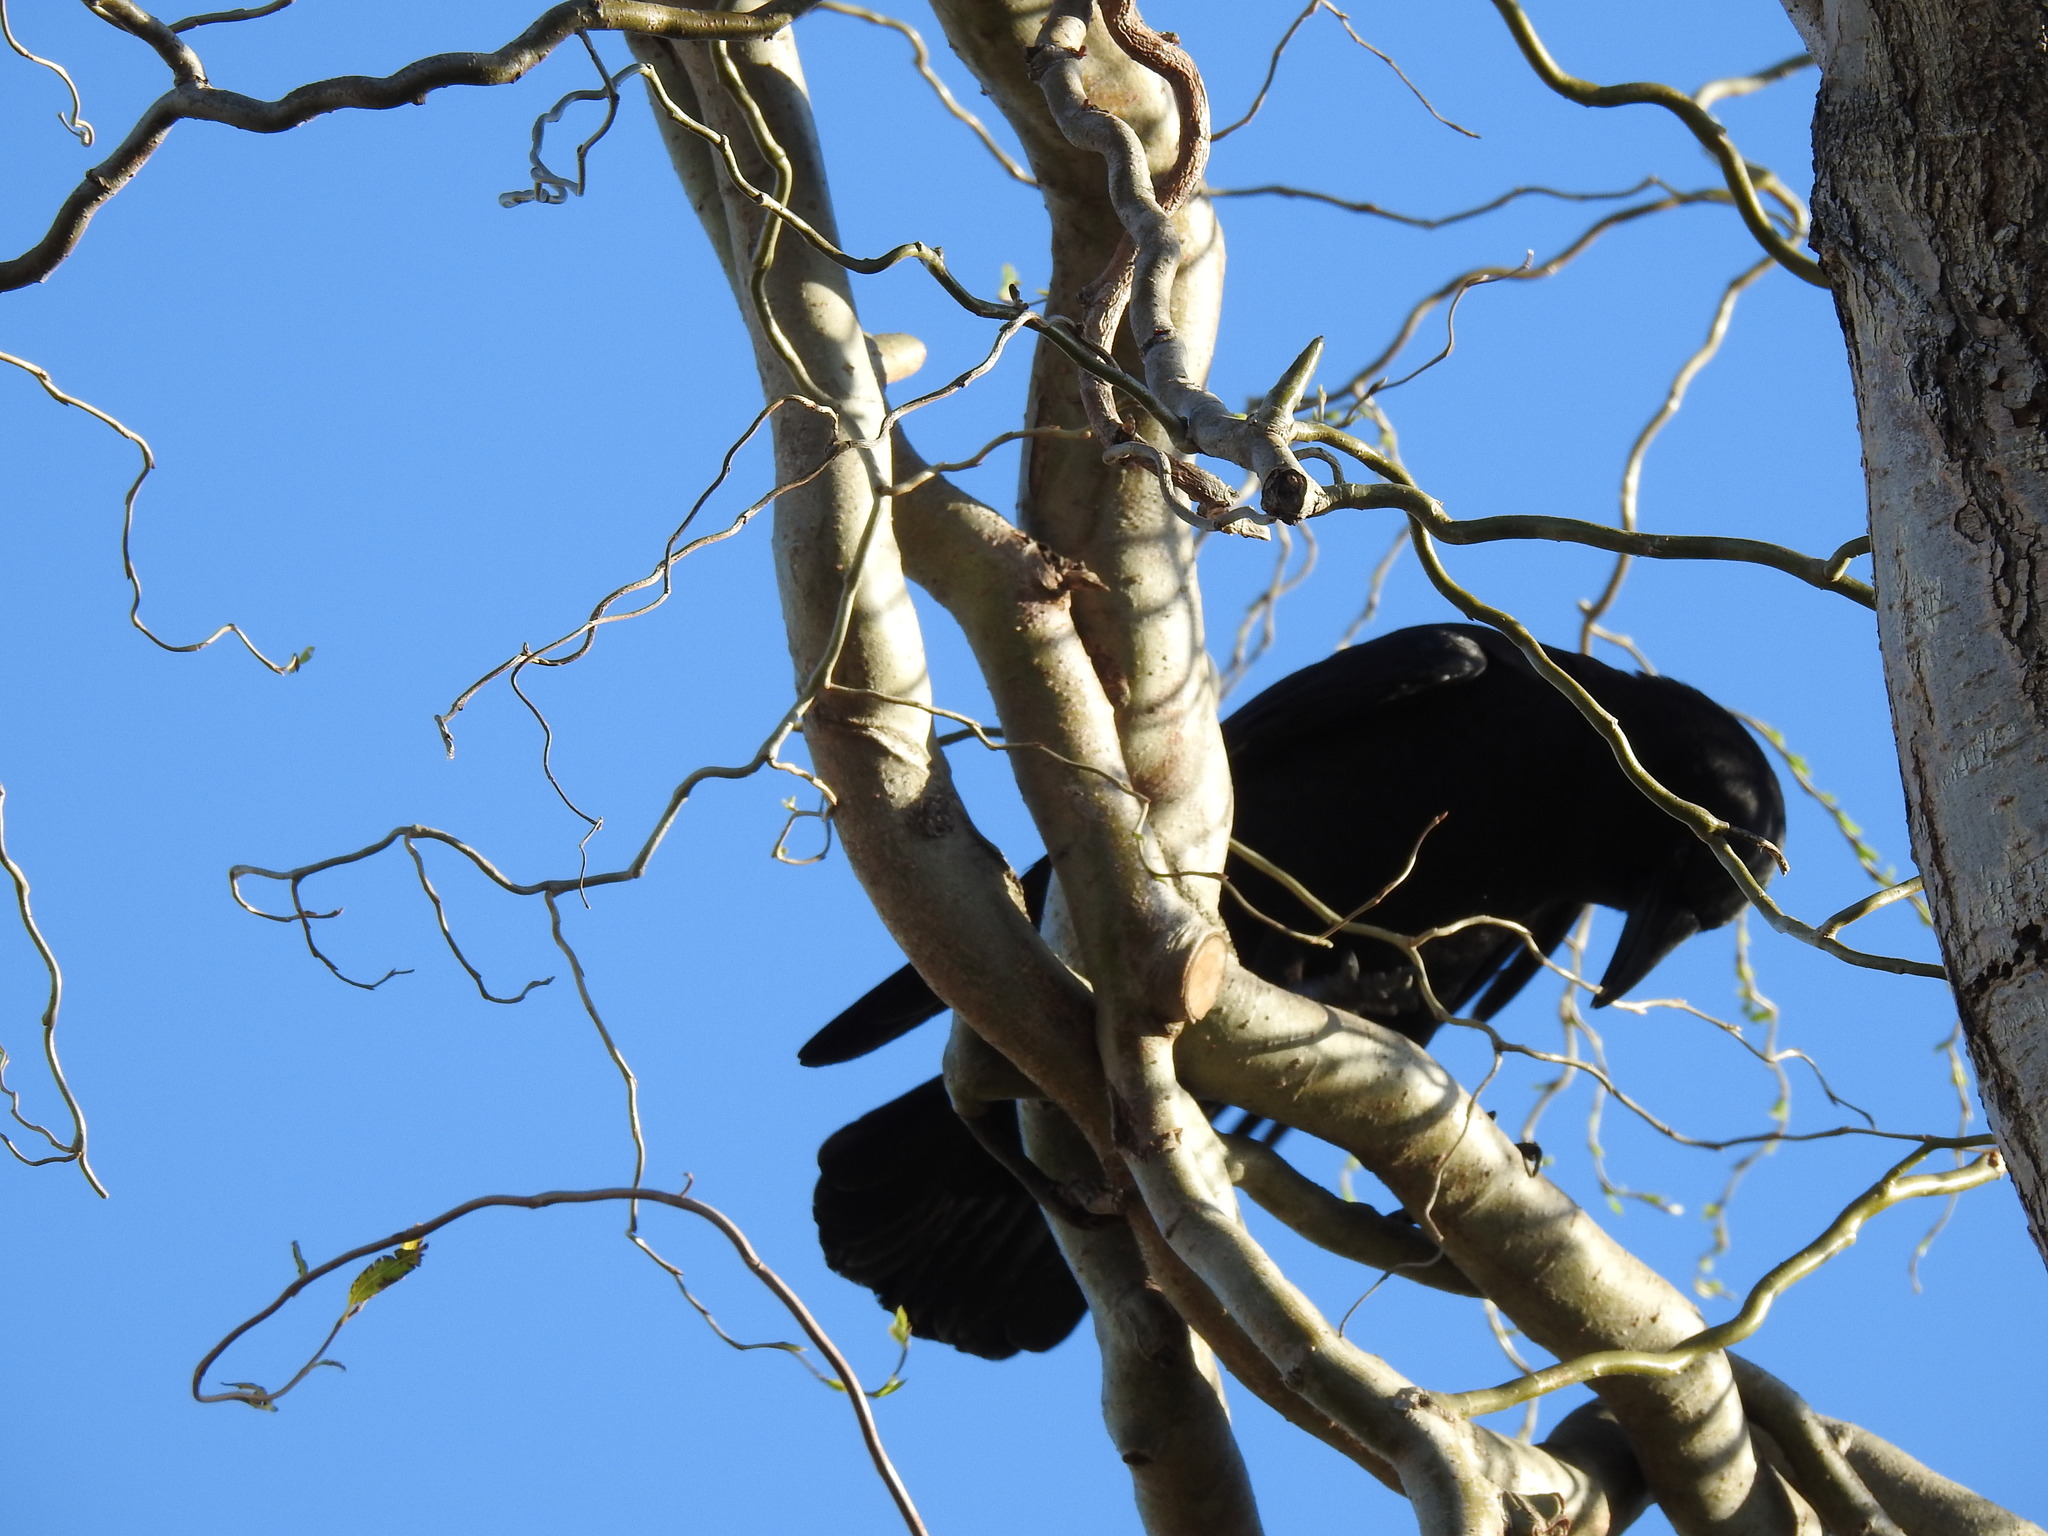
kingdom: Animalia
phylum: Chordata
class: Aves
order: Passeriformes
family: Corvidae
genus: Corvus
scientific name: Corvus brachyrhynchos
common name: American crow
